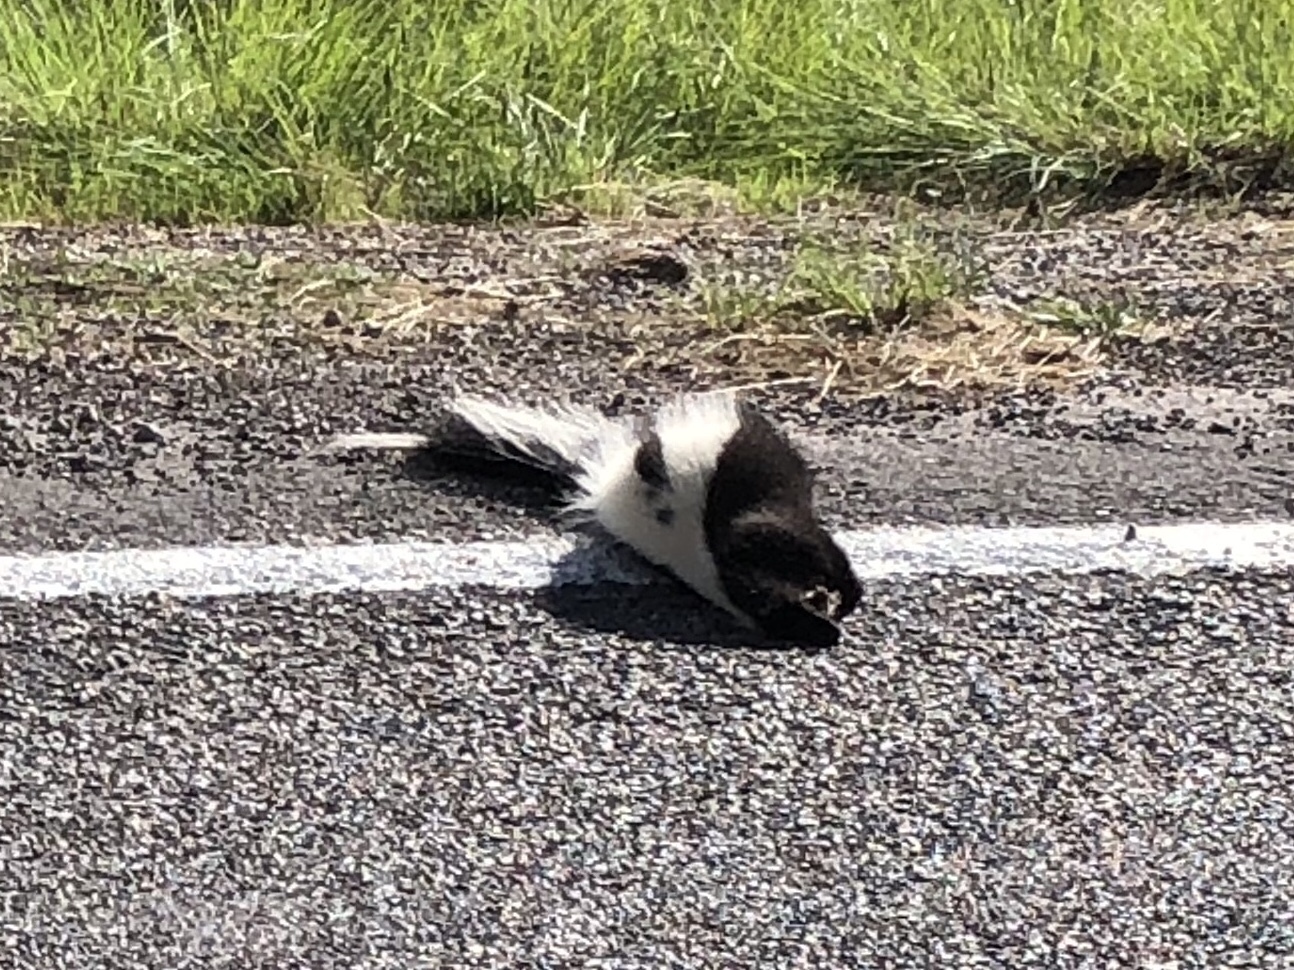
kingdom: Animalia
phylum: Chordata
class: Mammalia
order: Carnivora
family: Mephitidae
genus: Mephitis
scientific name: Mephitis mephitis
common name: Striped skunk
